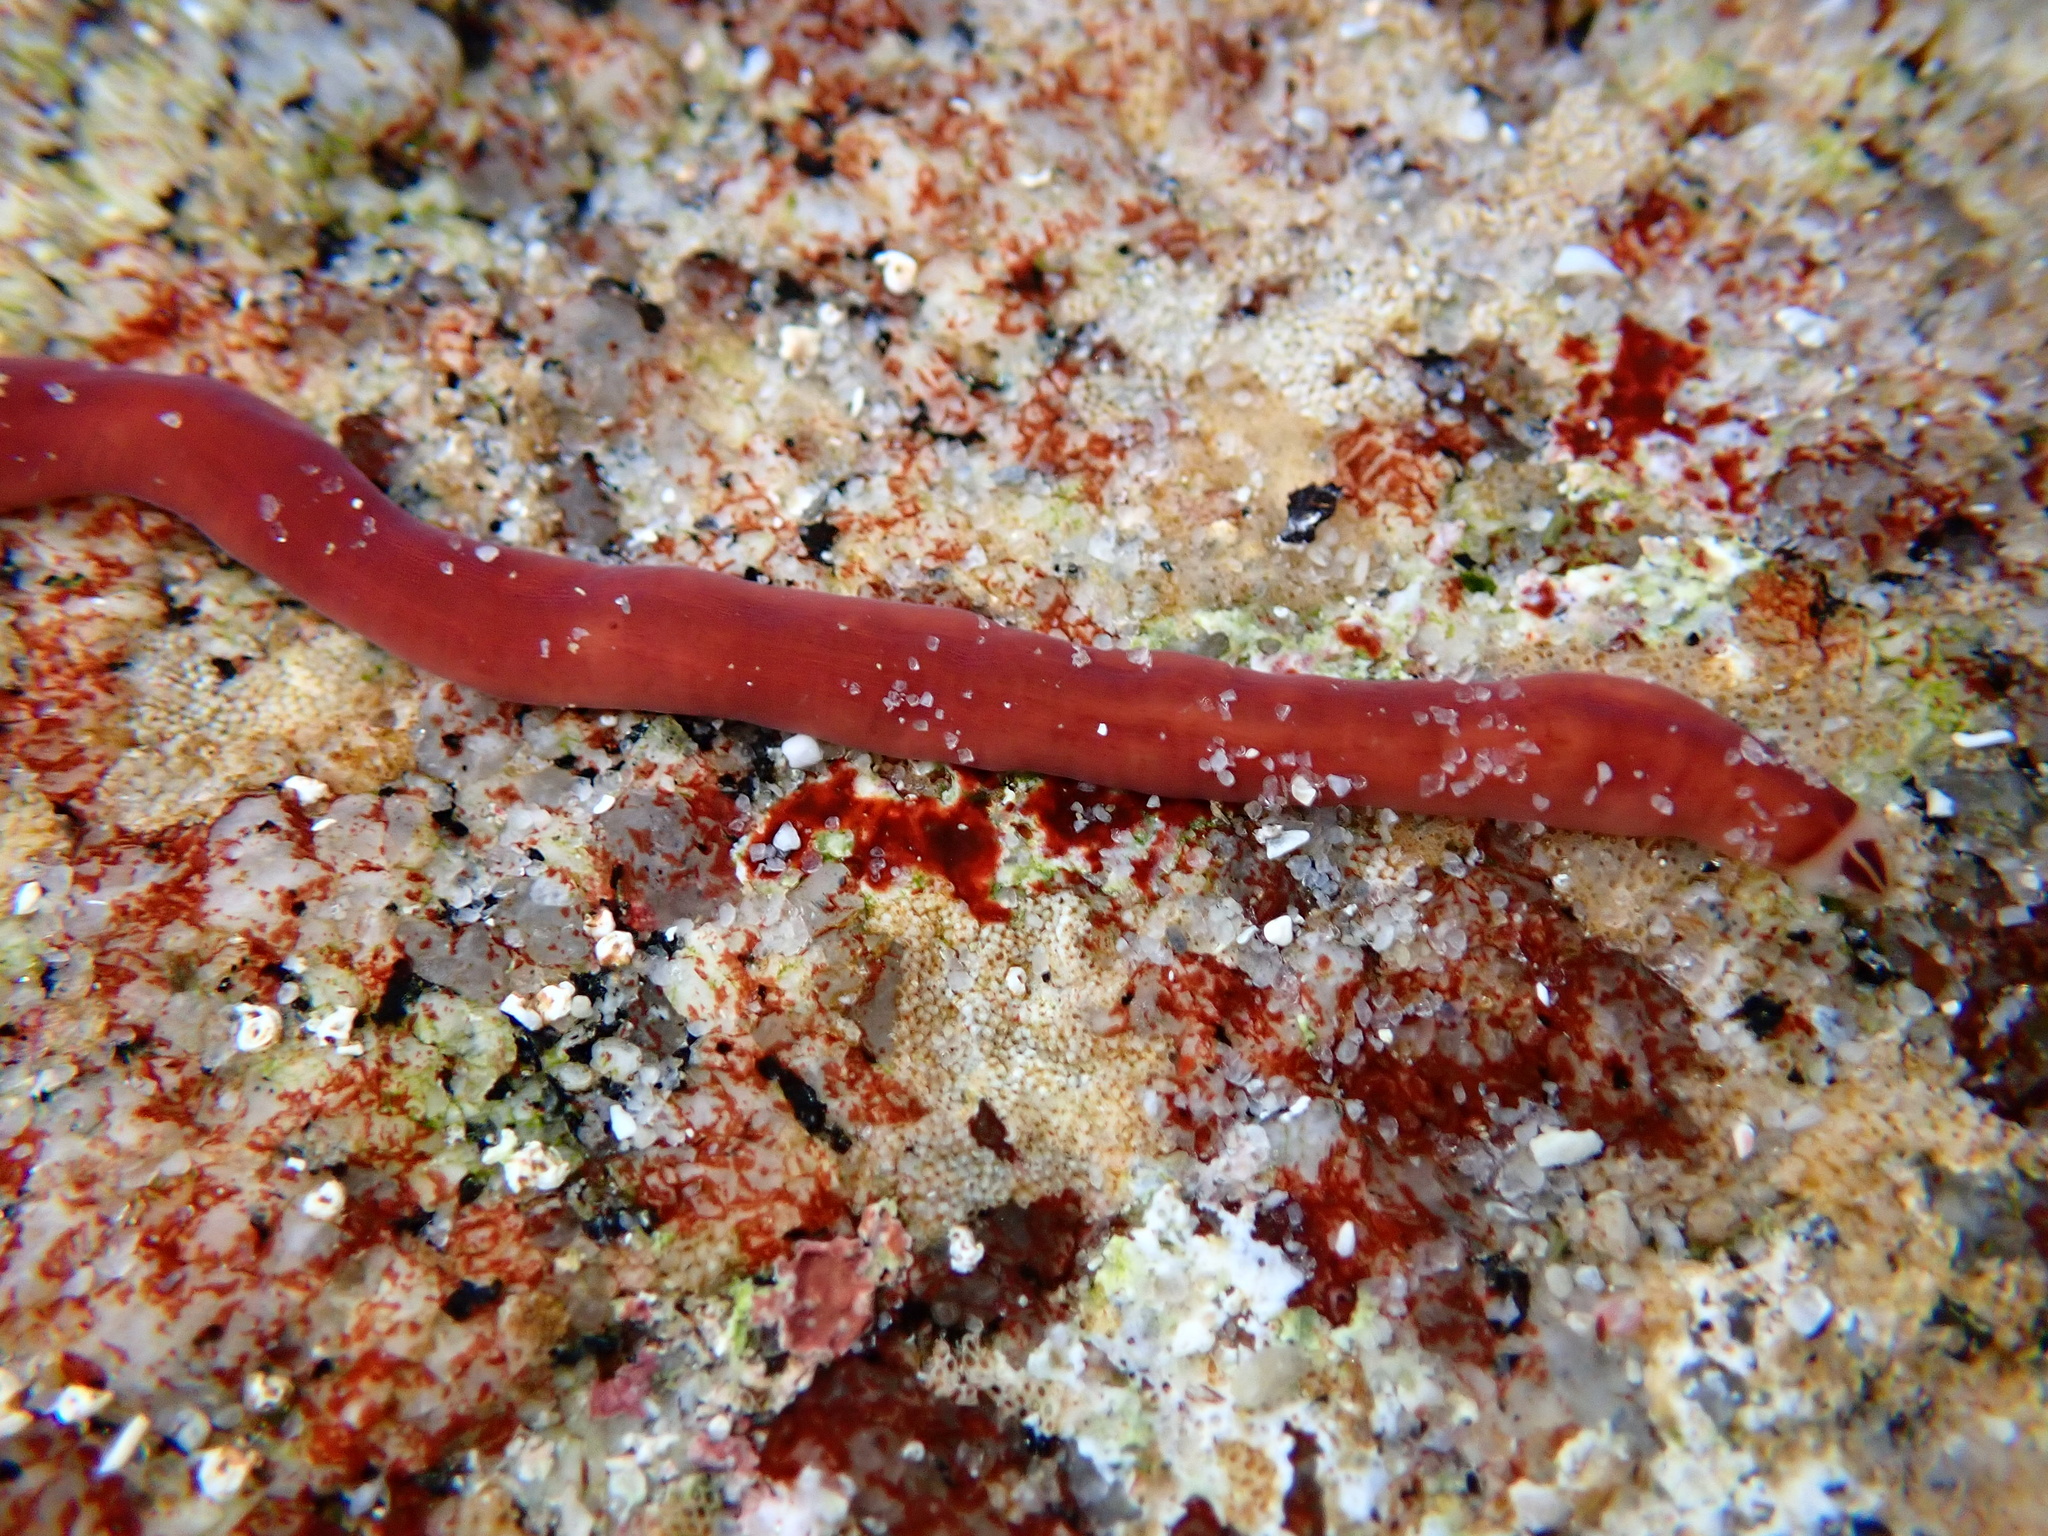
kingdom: Animalia
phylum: Nemertea
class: Hoplonemertea
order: Monostilifera
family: Cratenemertidae
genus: Nipponnemertes
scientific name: Nipponnemertes bimaculata
